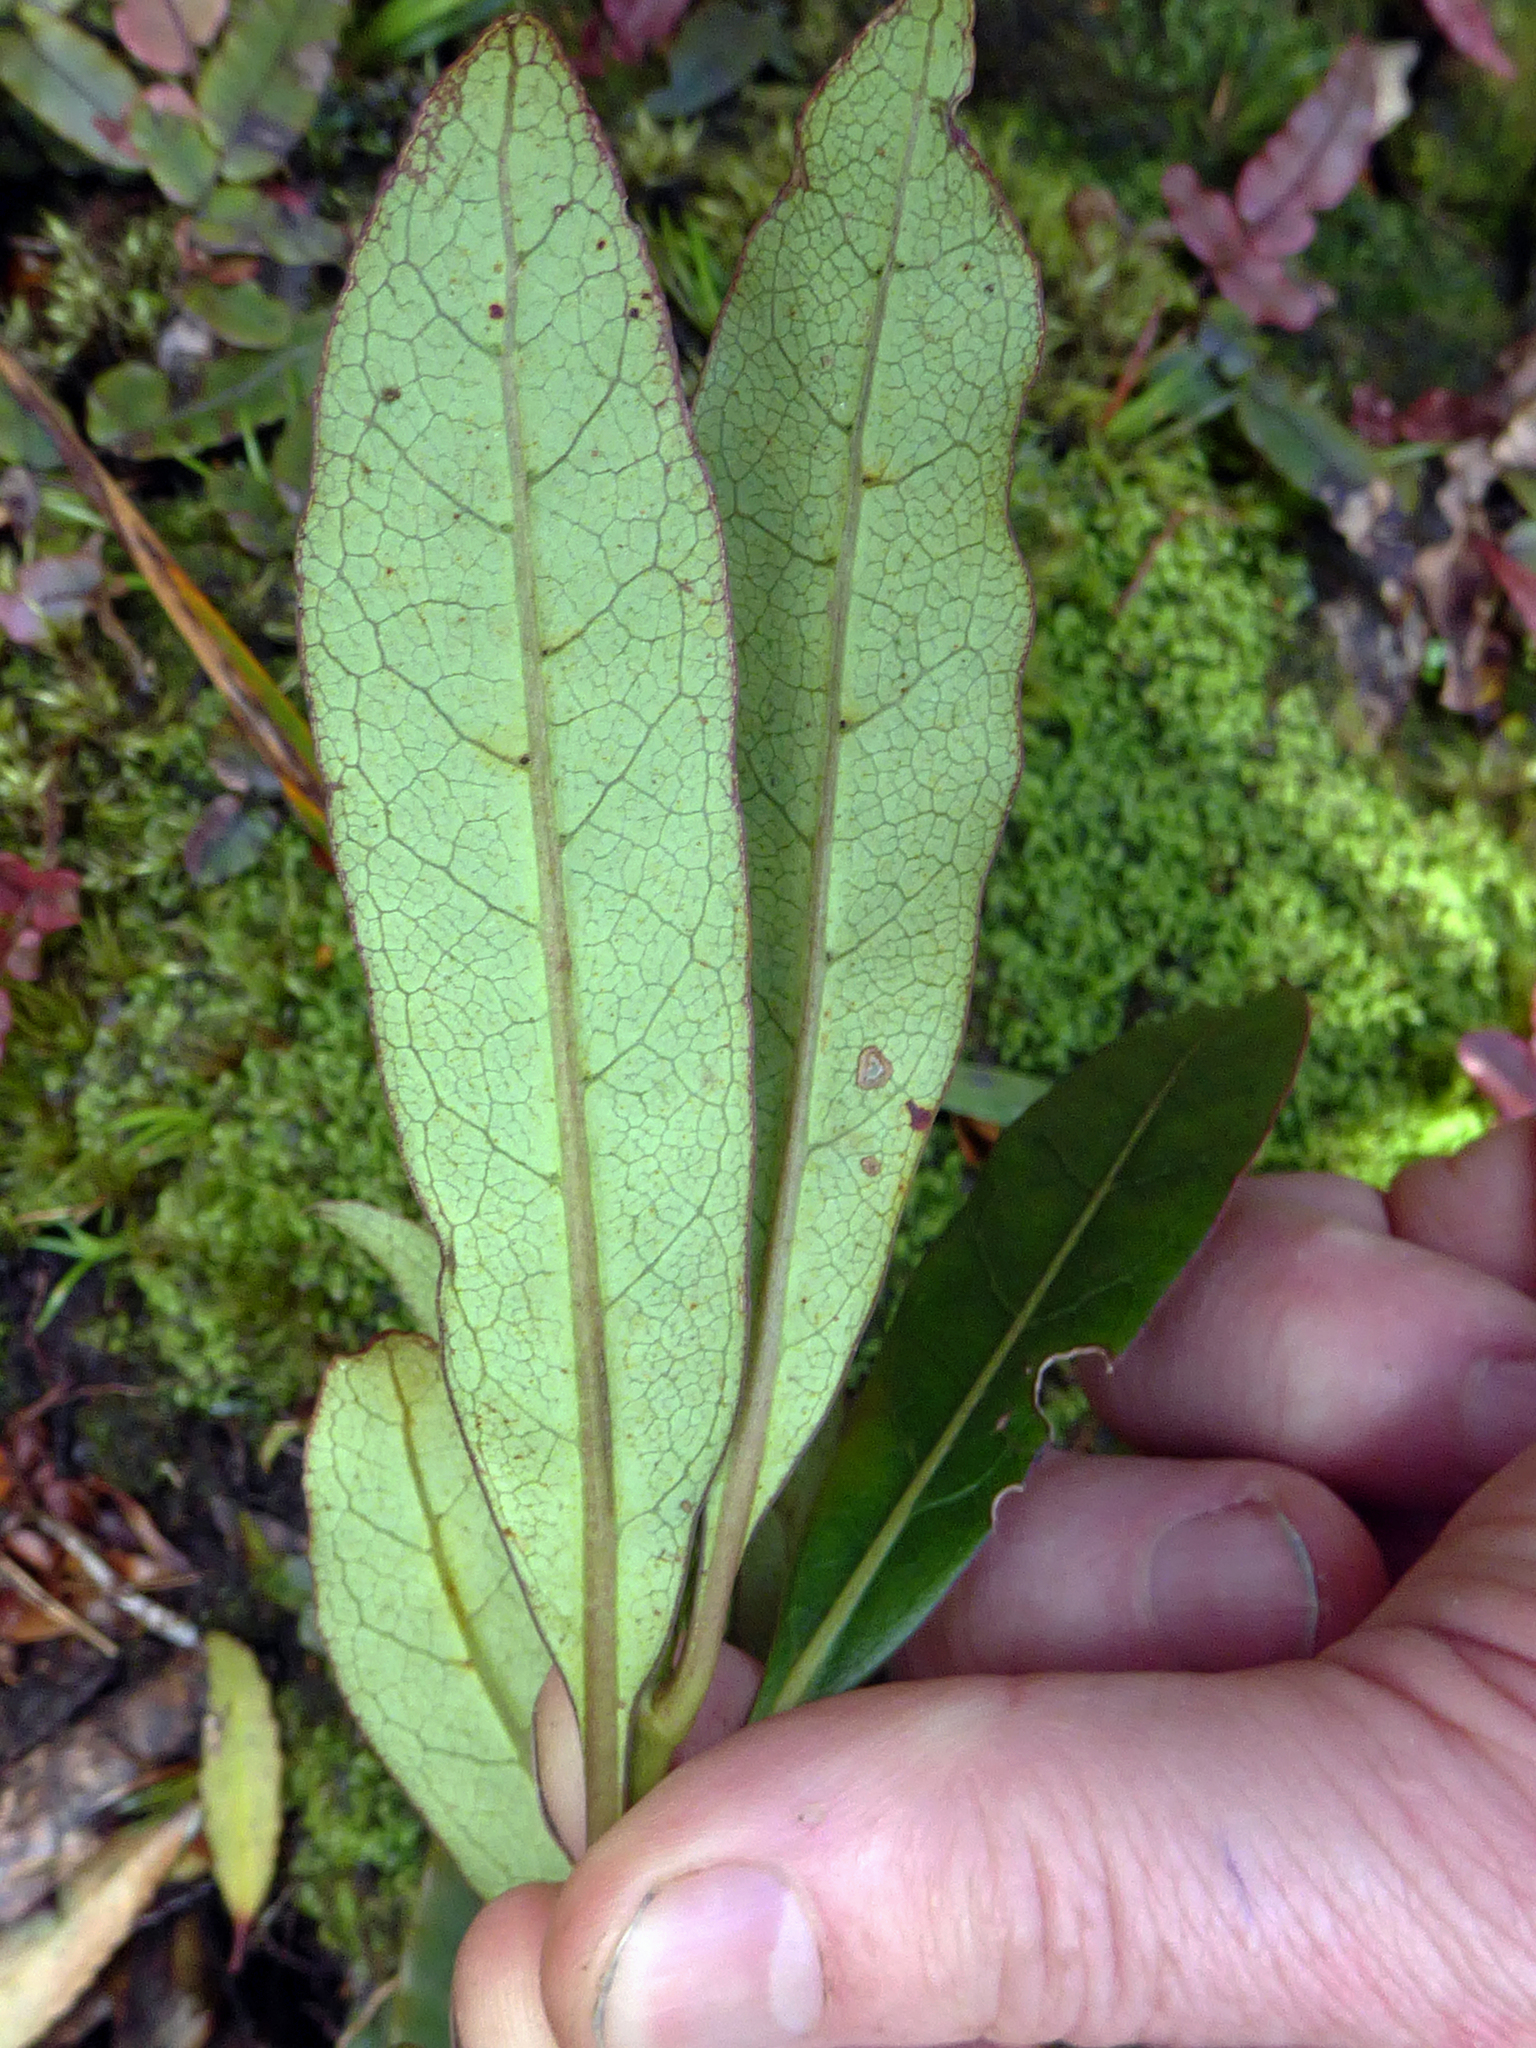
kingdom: Plantae
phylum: Tracheophyta
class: Magnoliopsida
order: Gentianales
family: Rubiaceae
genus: Coprosma
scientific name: Coprosma dodonaeifolia
